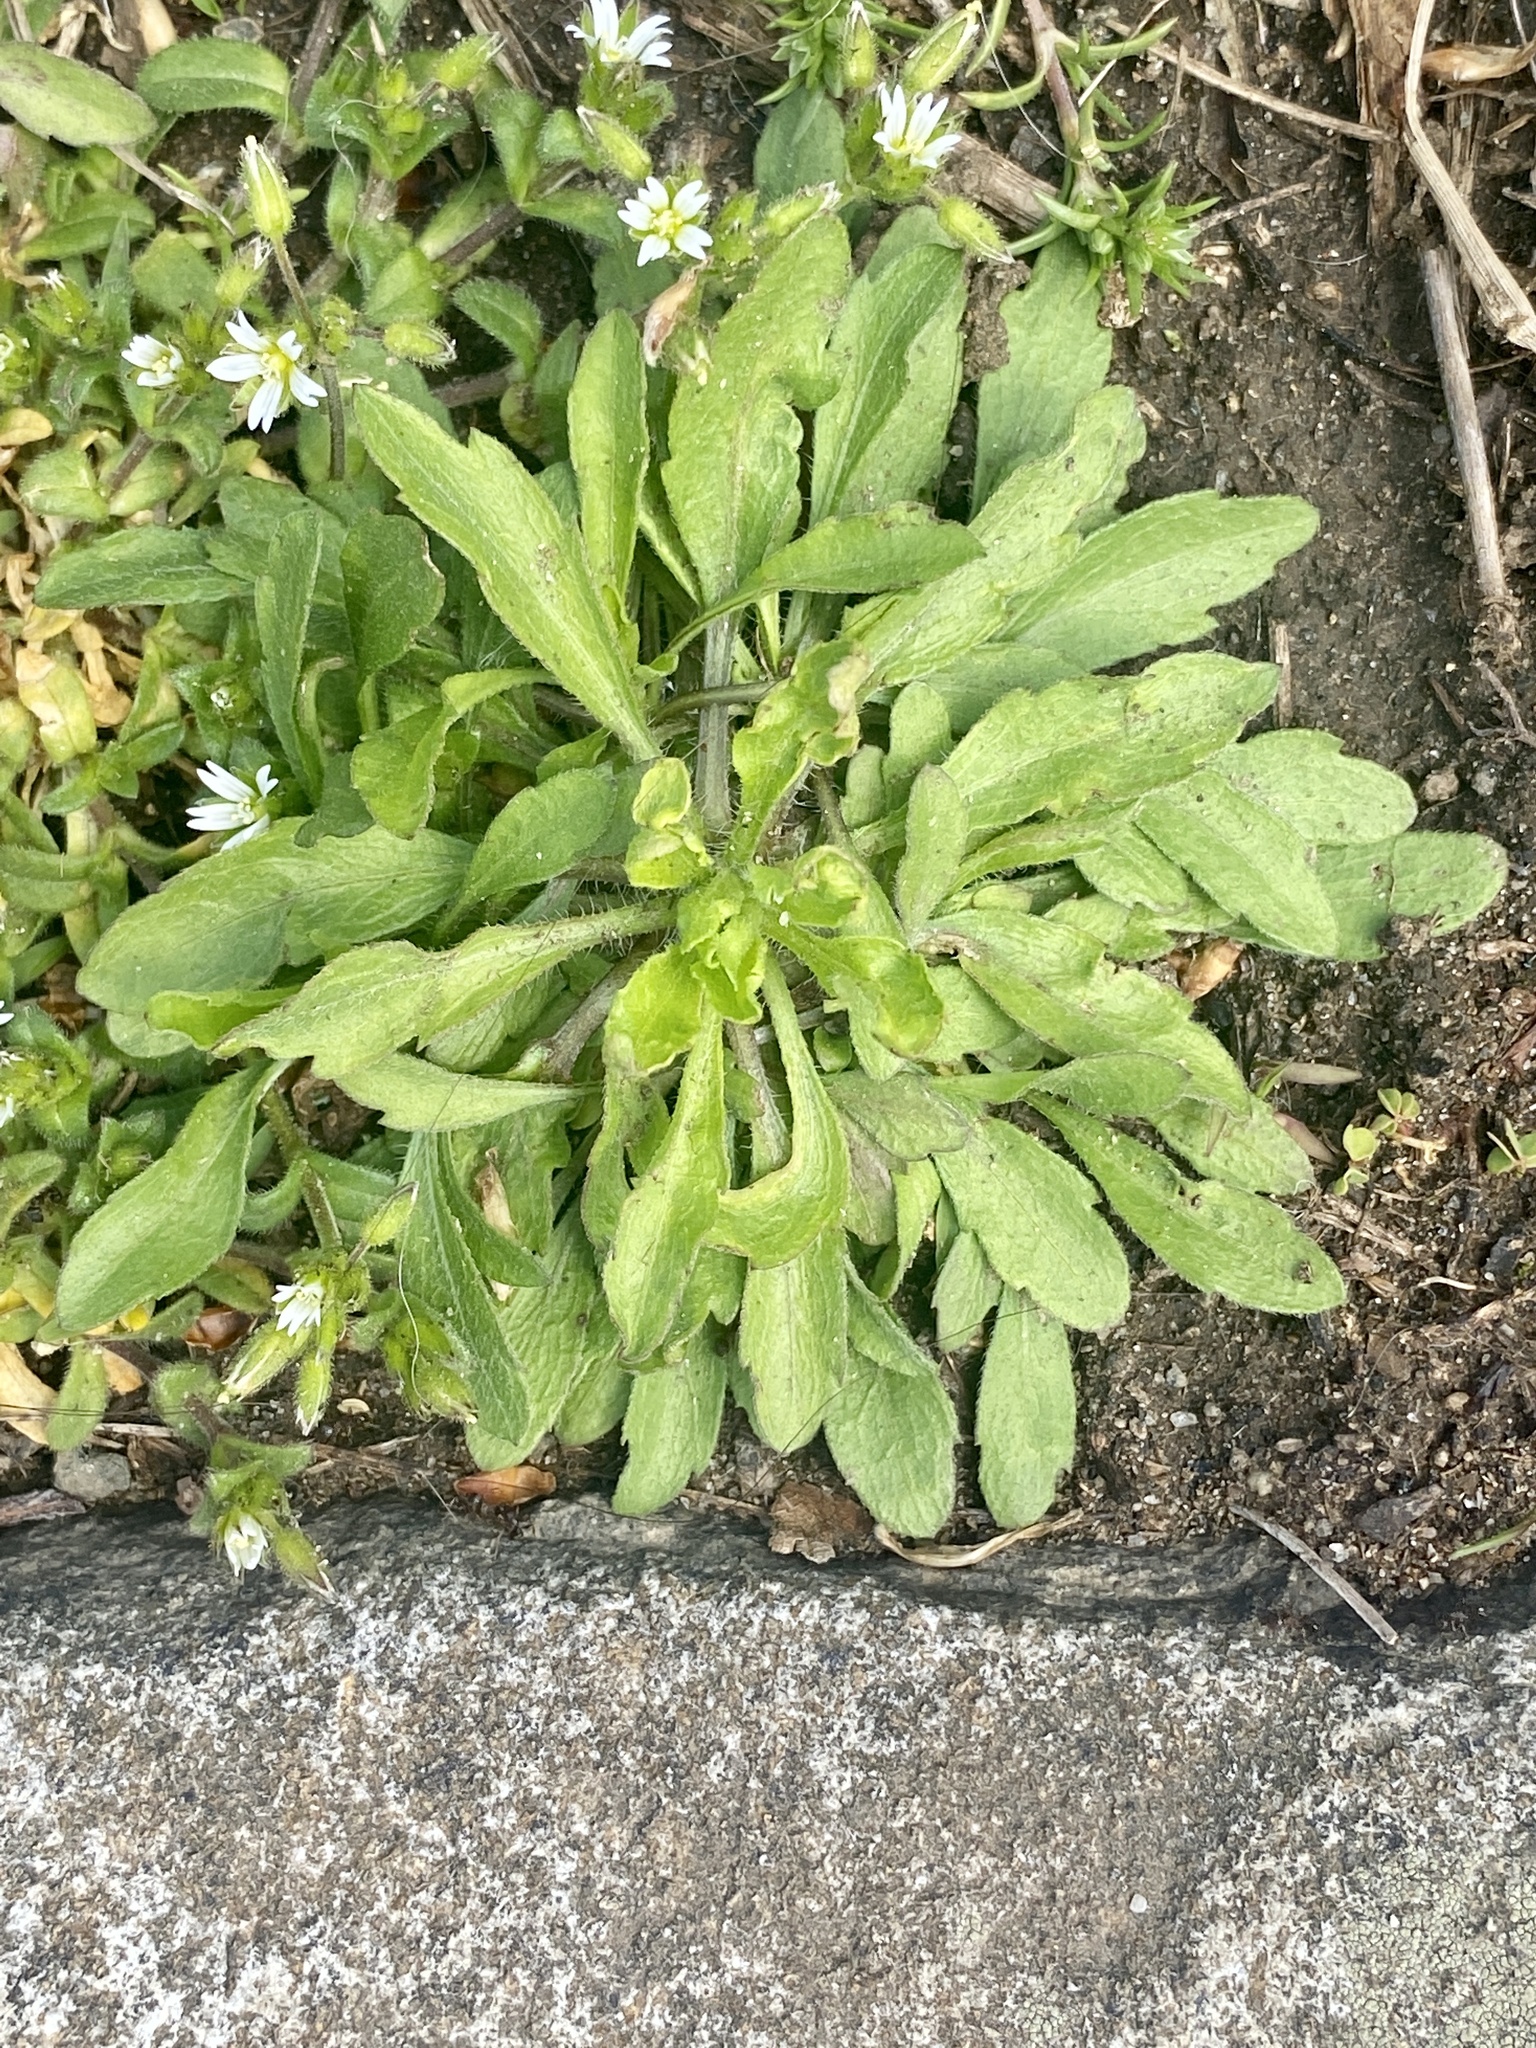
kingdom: Plantae
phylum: Tracheophyta
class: Magnoliopsida
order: Asterales
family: Asteraceae
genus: Erigeron
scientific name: Erigeron canadensis
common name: Canadian fleabane
